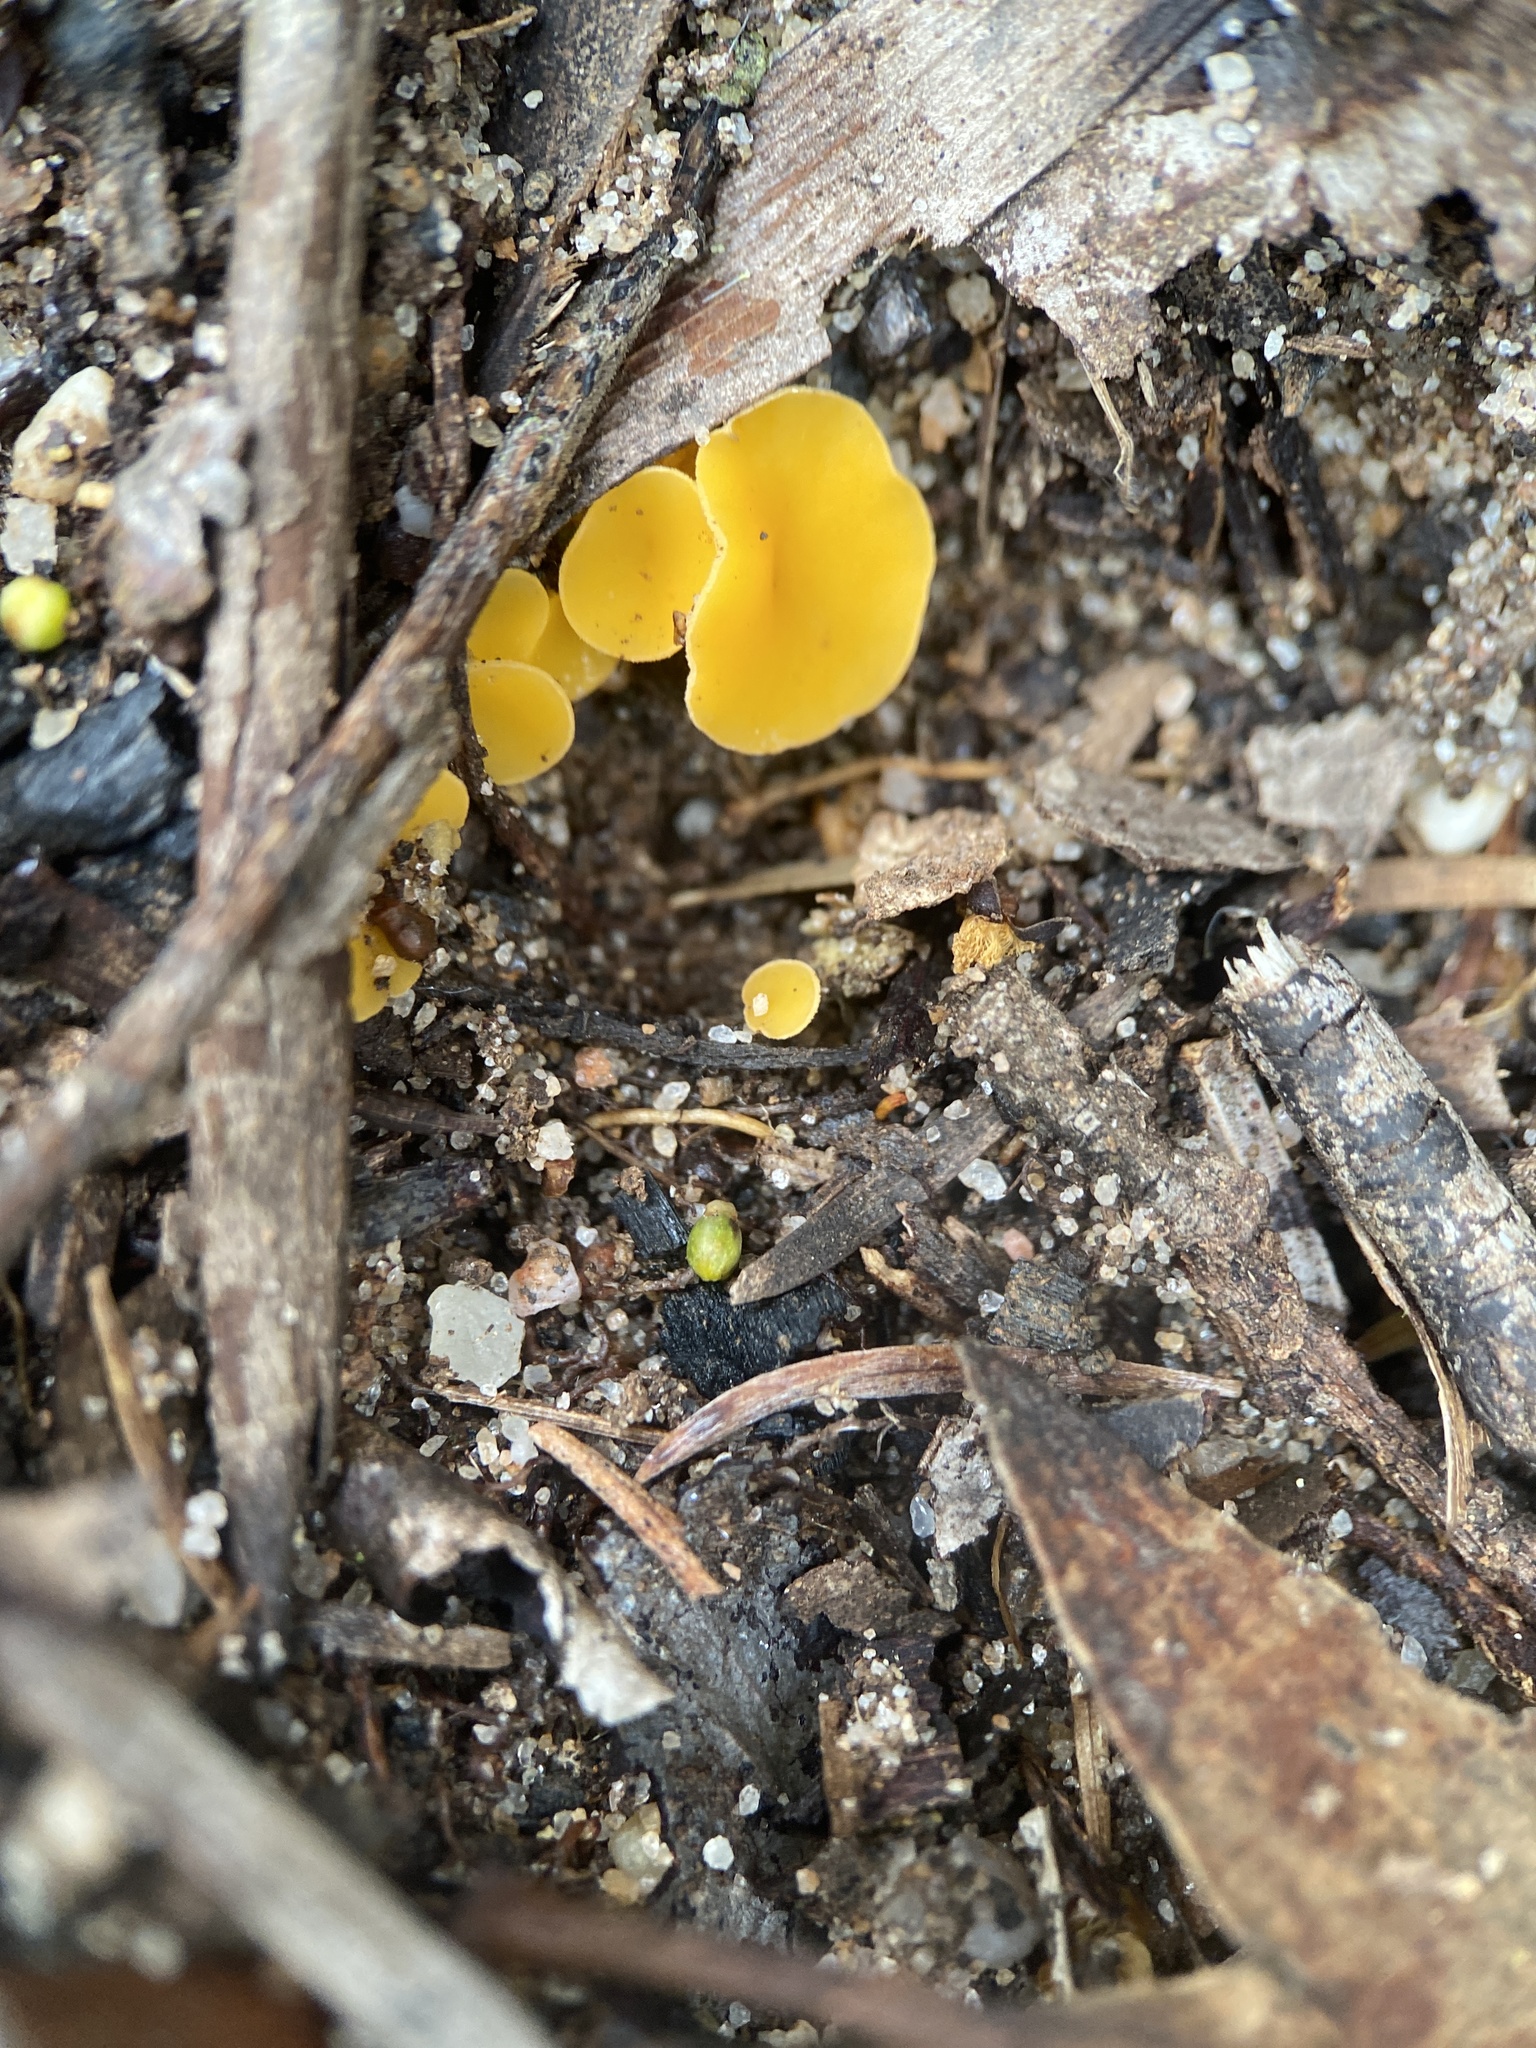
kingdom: Fungi
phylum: Ascomycota
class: Leotiomycetes
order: Helotiales
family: Helotiaceae
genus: Phaeohelotium
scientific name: Phaeohelotium baileyanum
